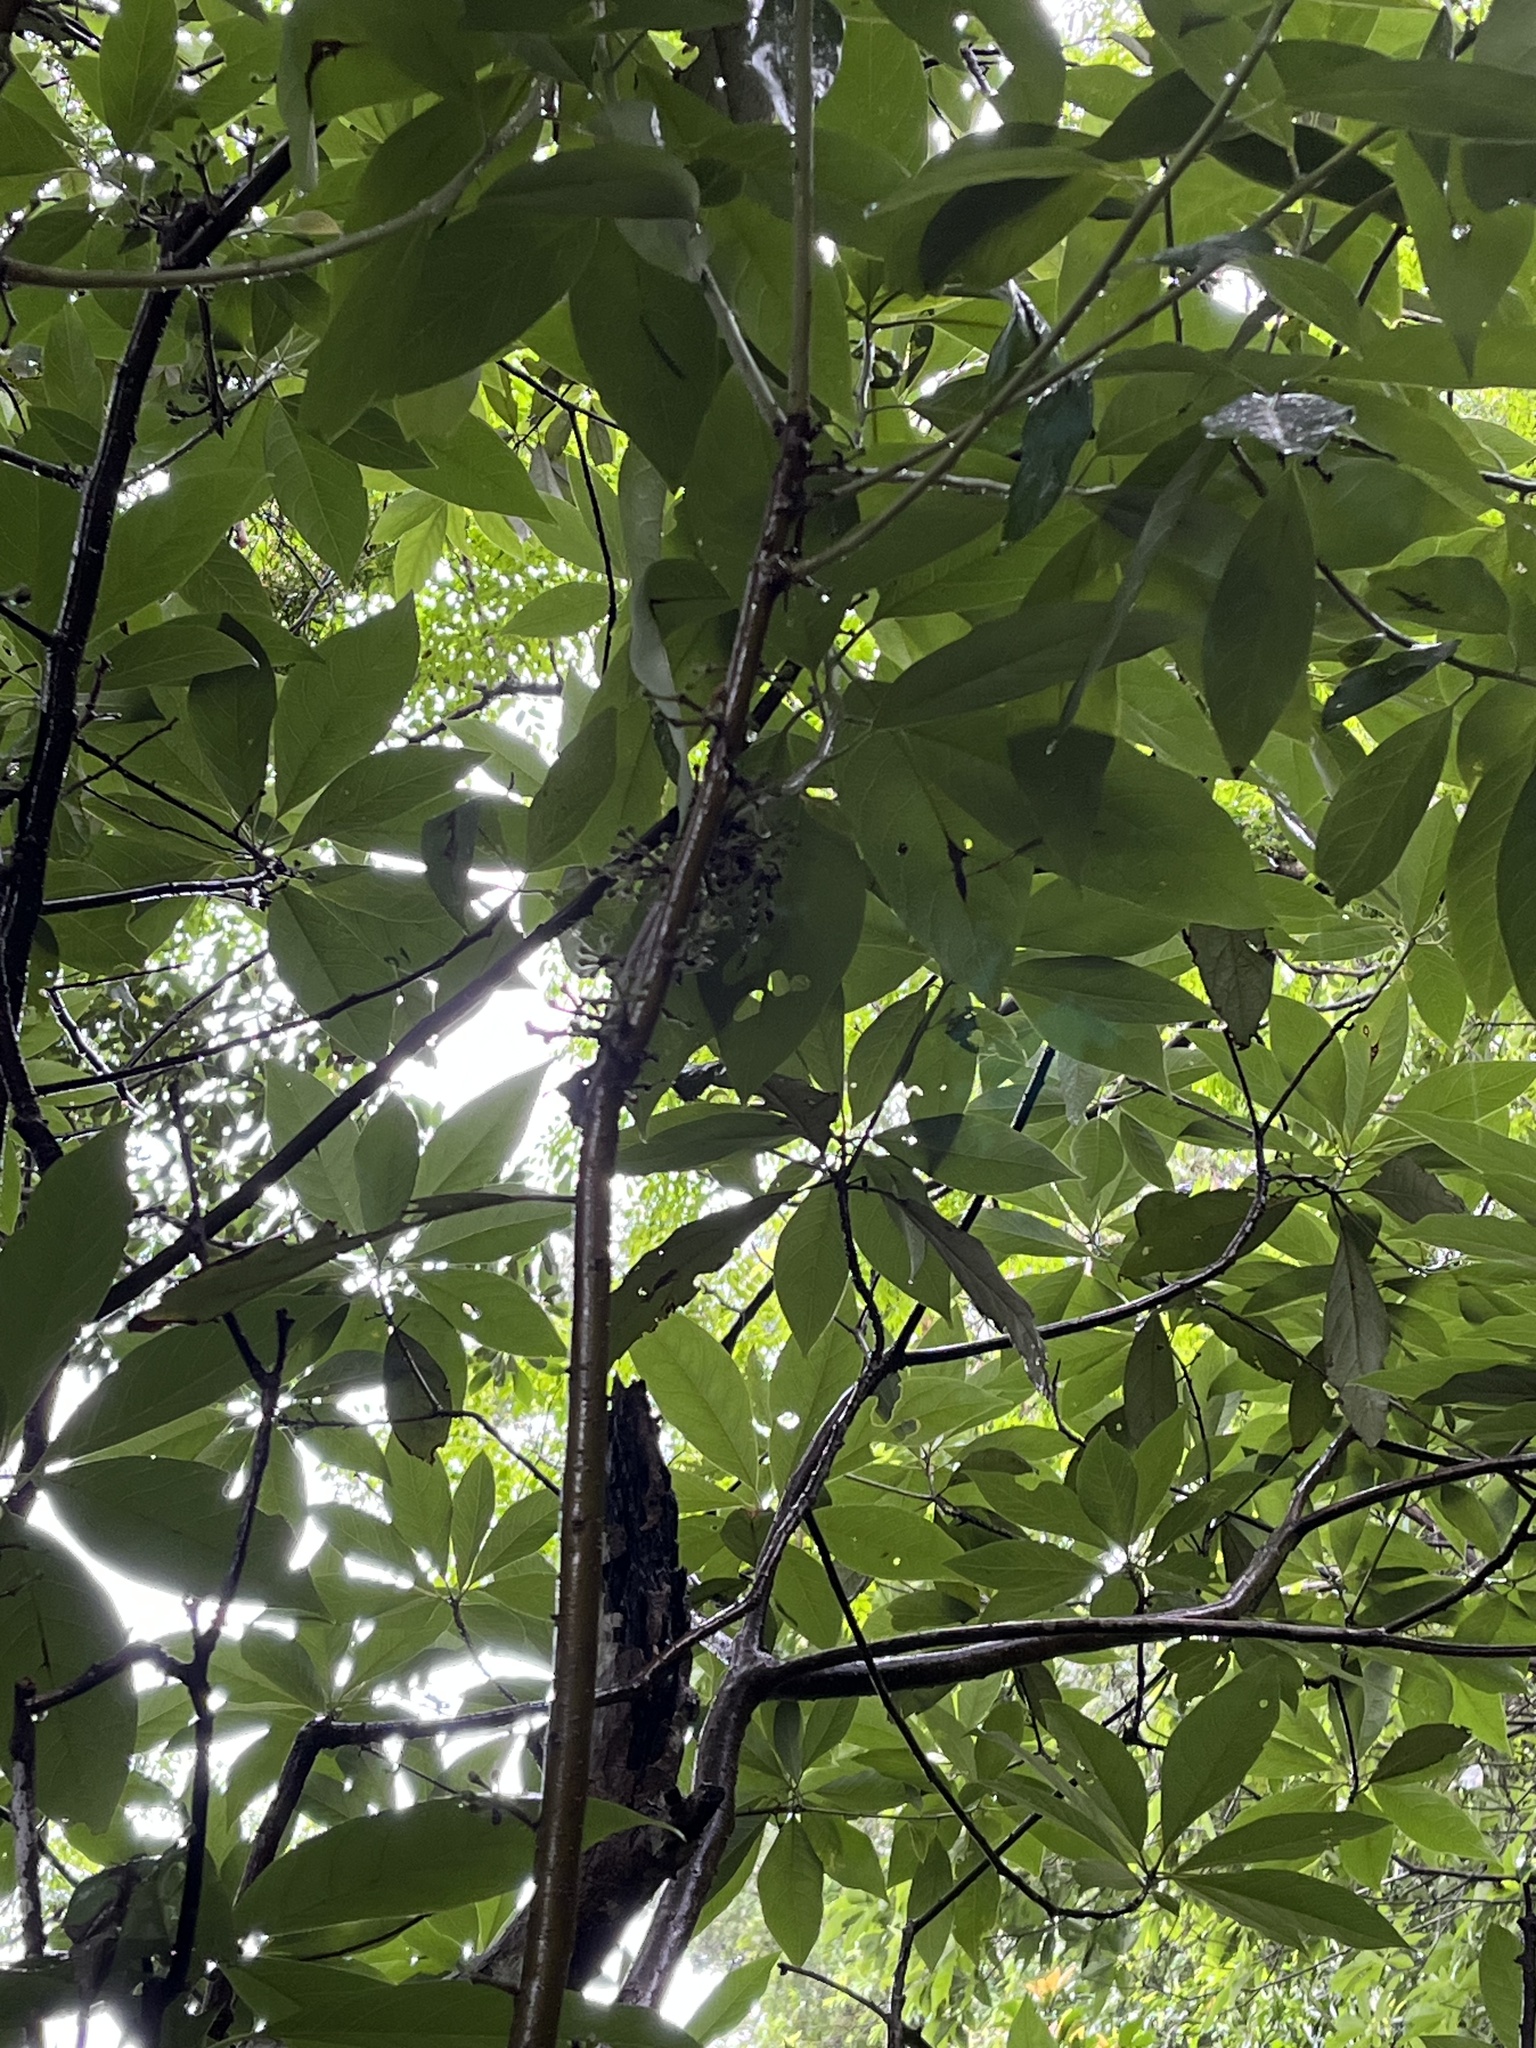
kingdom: Plantae
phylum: Tracheophyta
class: Magnoliopsida
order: Laurales
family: Lauraceae
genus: Lindera
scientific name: Lindera megaphylla
